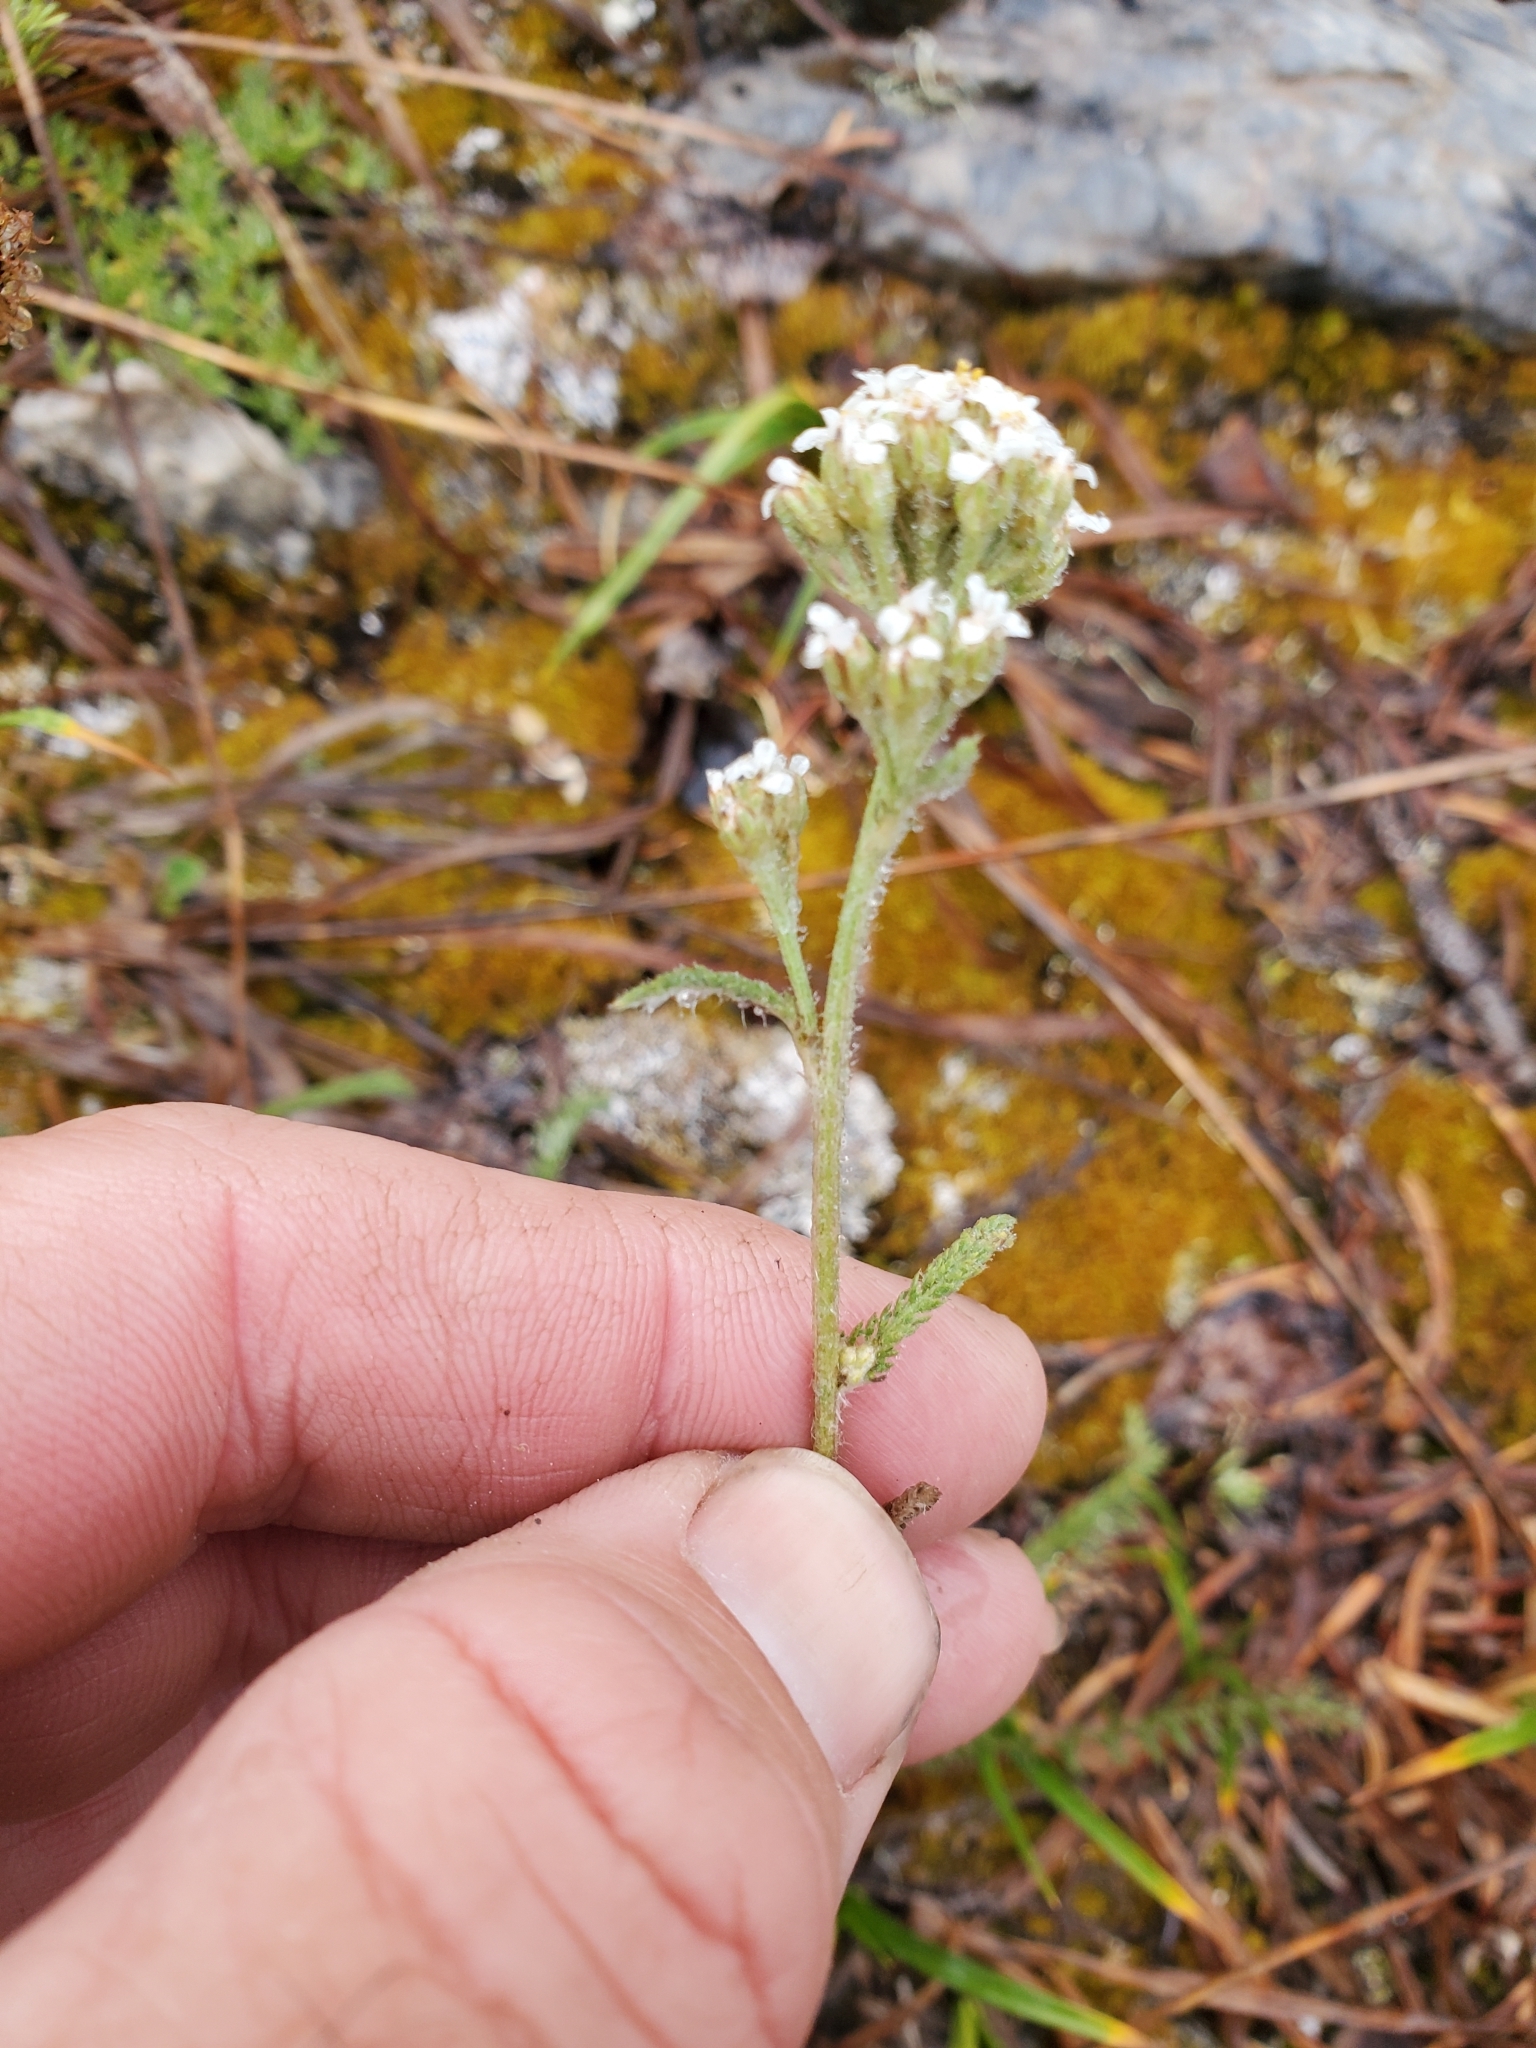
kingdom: Plantae
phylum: Tracheophyta
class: Magnoliopsida
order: Asterales
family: Asteraceae
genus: Achillea
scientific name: Achillea millefolium
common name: Yarrow
